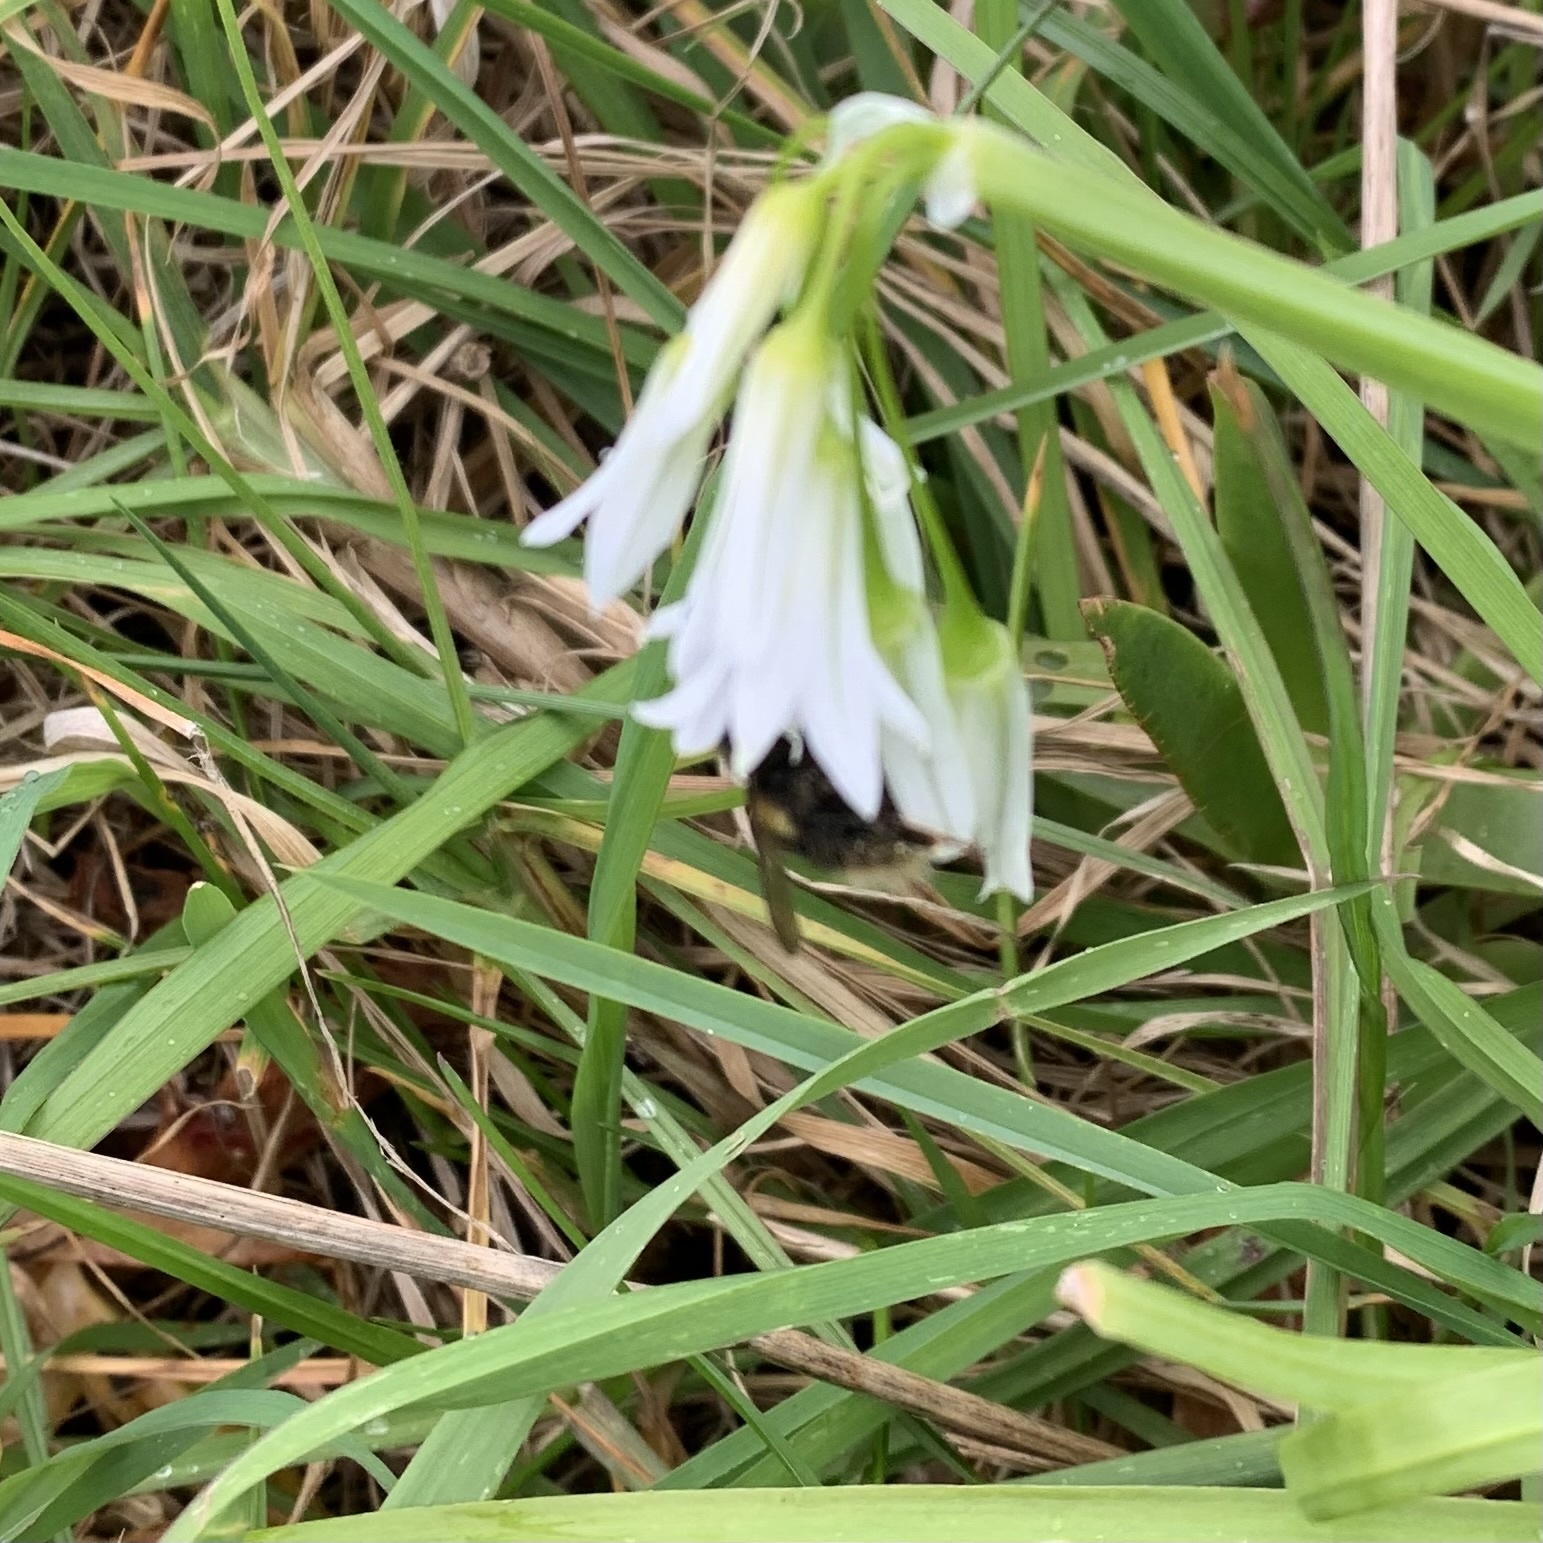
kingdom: Animalia
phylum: Arthropoda
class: Insecta
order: Hymenoptera
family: Apidae
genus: Bombus
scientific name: Bombus terrestris
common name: Buff-tailed bumblebee
